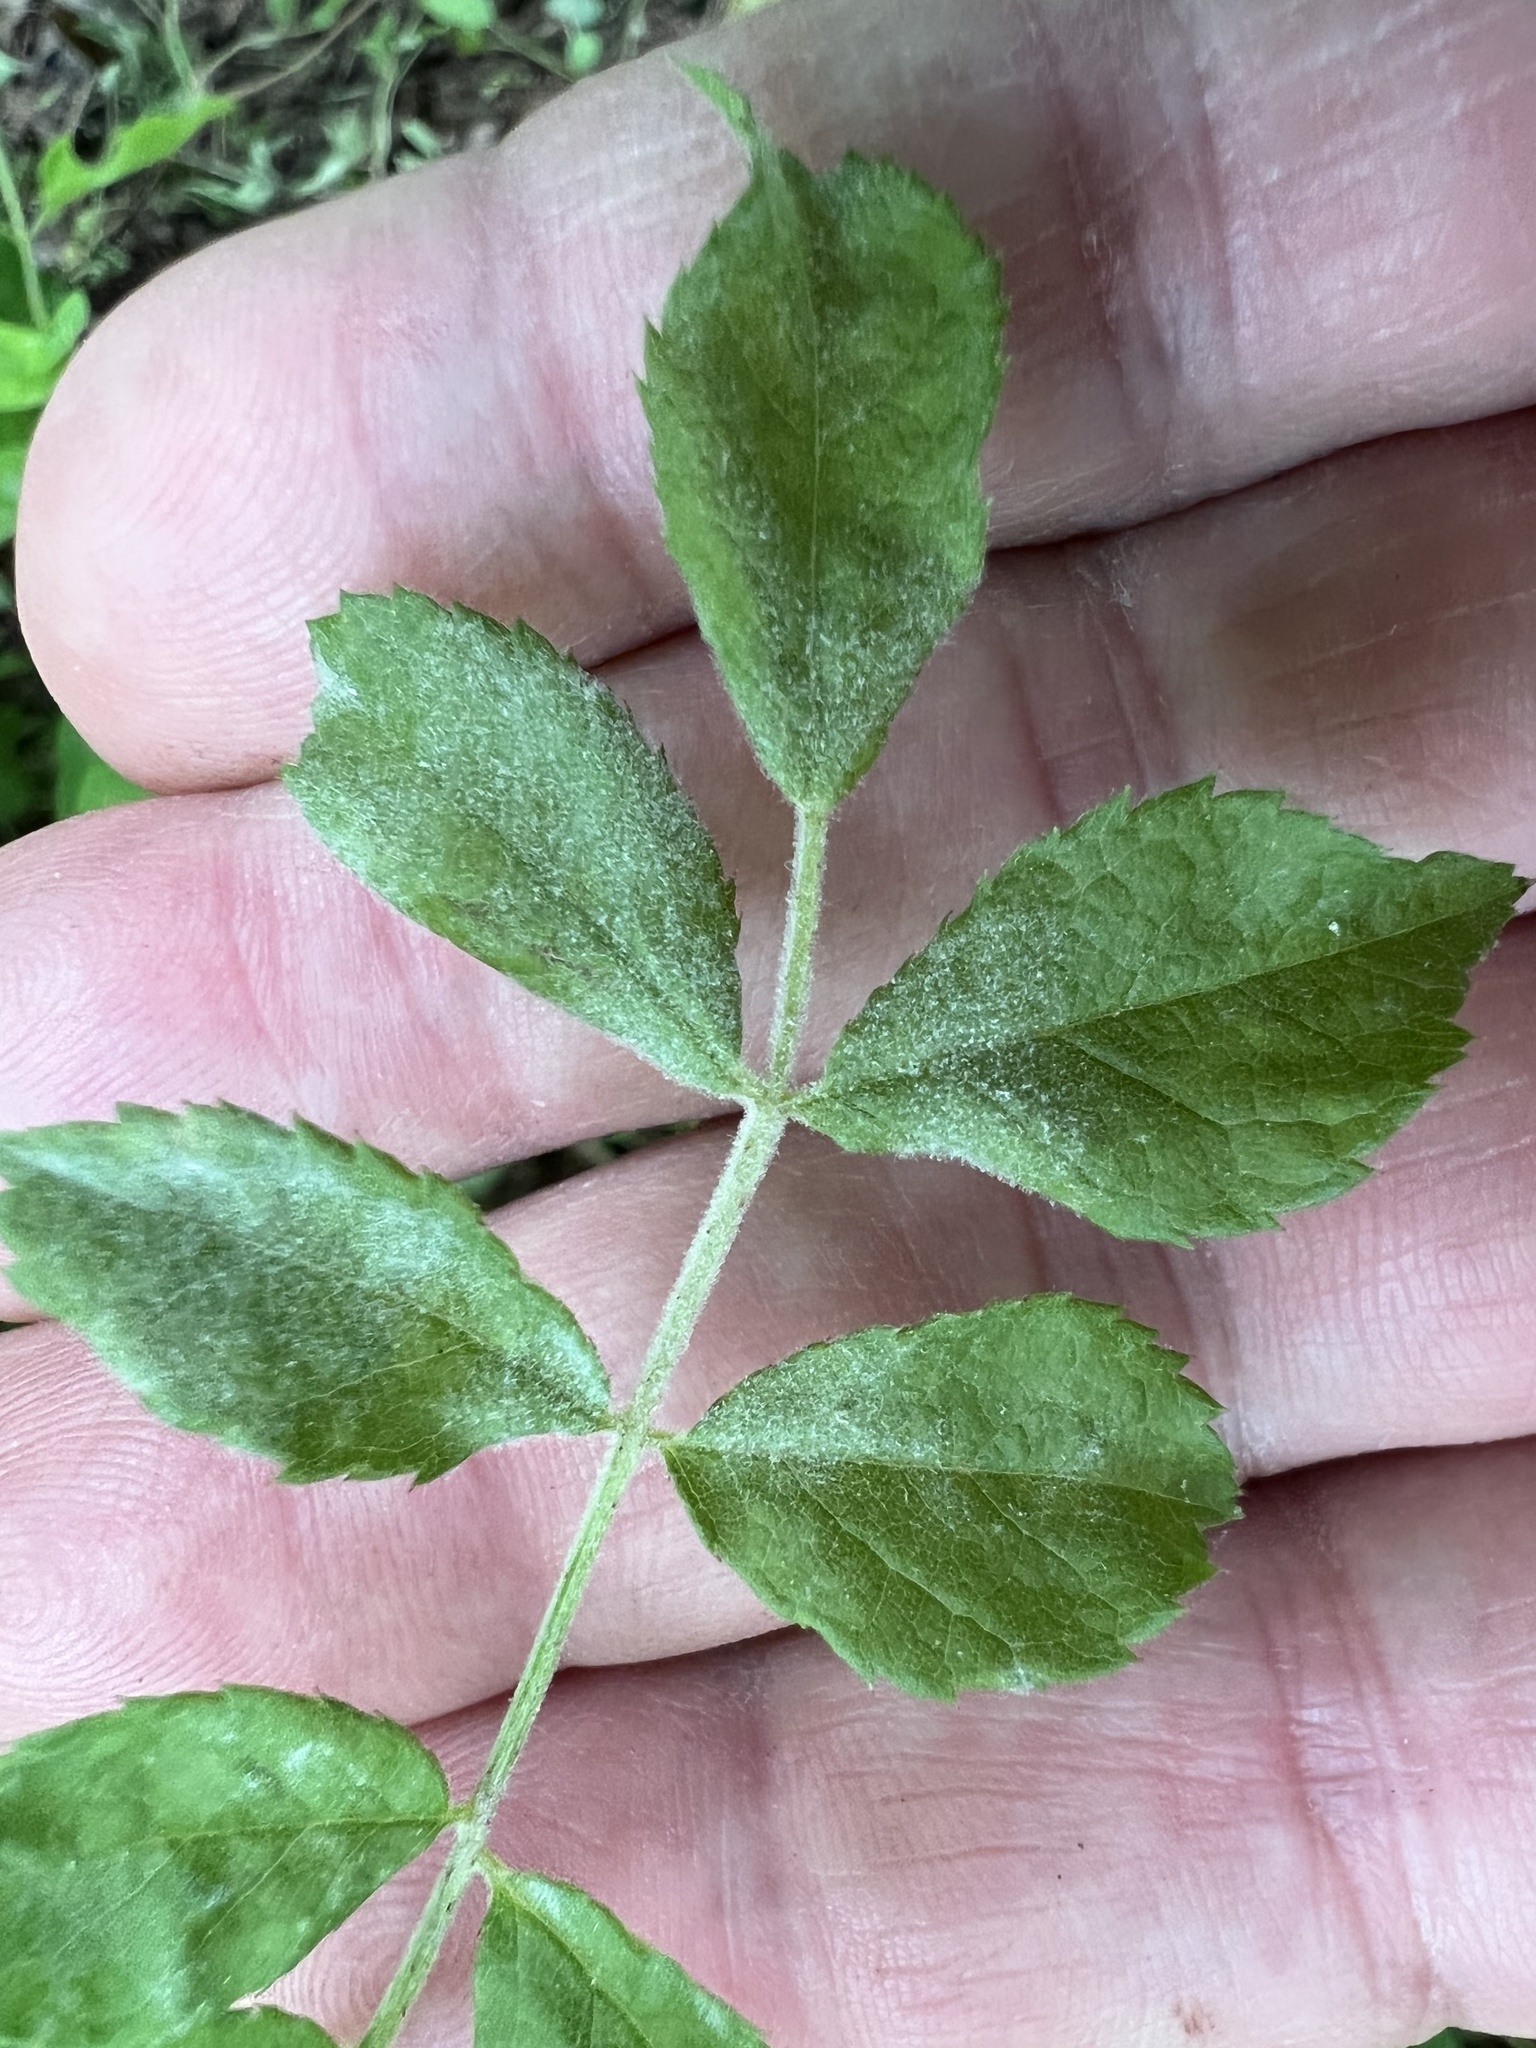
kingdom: Fungi
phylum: Ascomycota
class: Leotiomycetes
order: Helotiales
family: Erysiphaceae
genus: Podosphaera
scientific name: Podosphaera pannosa
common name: Rose mildew
